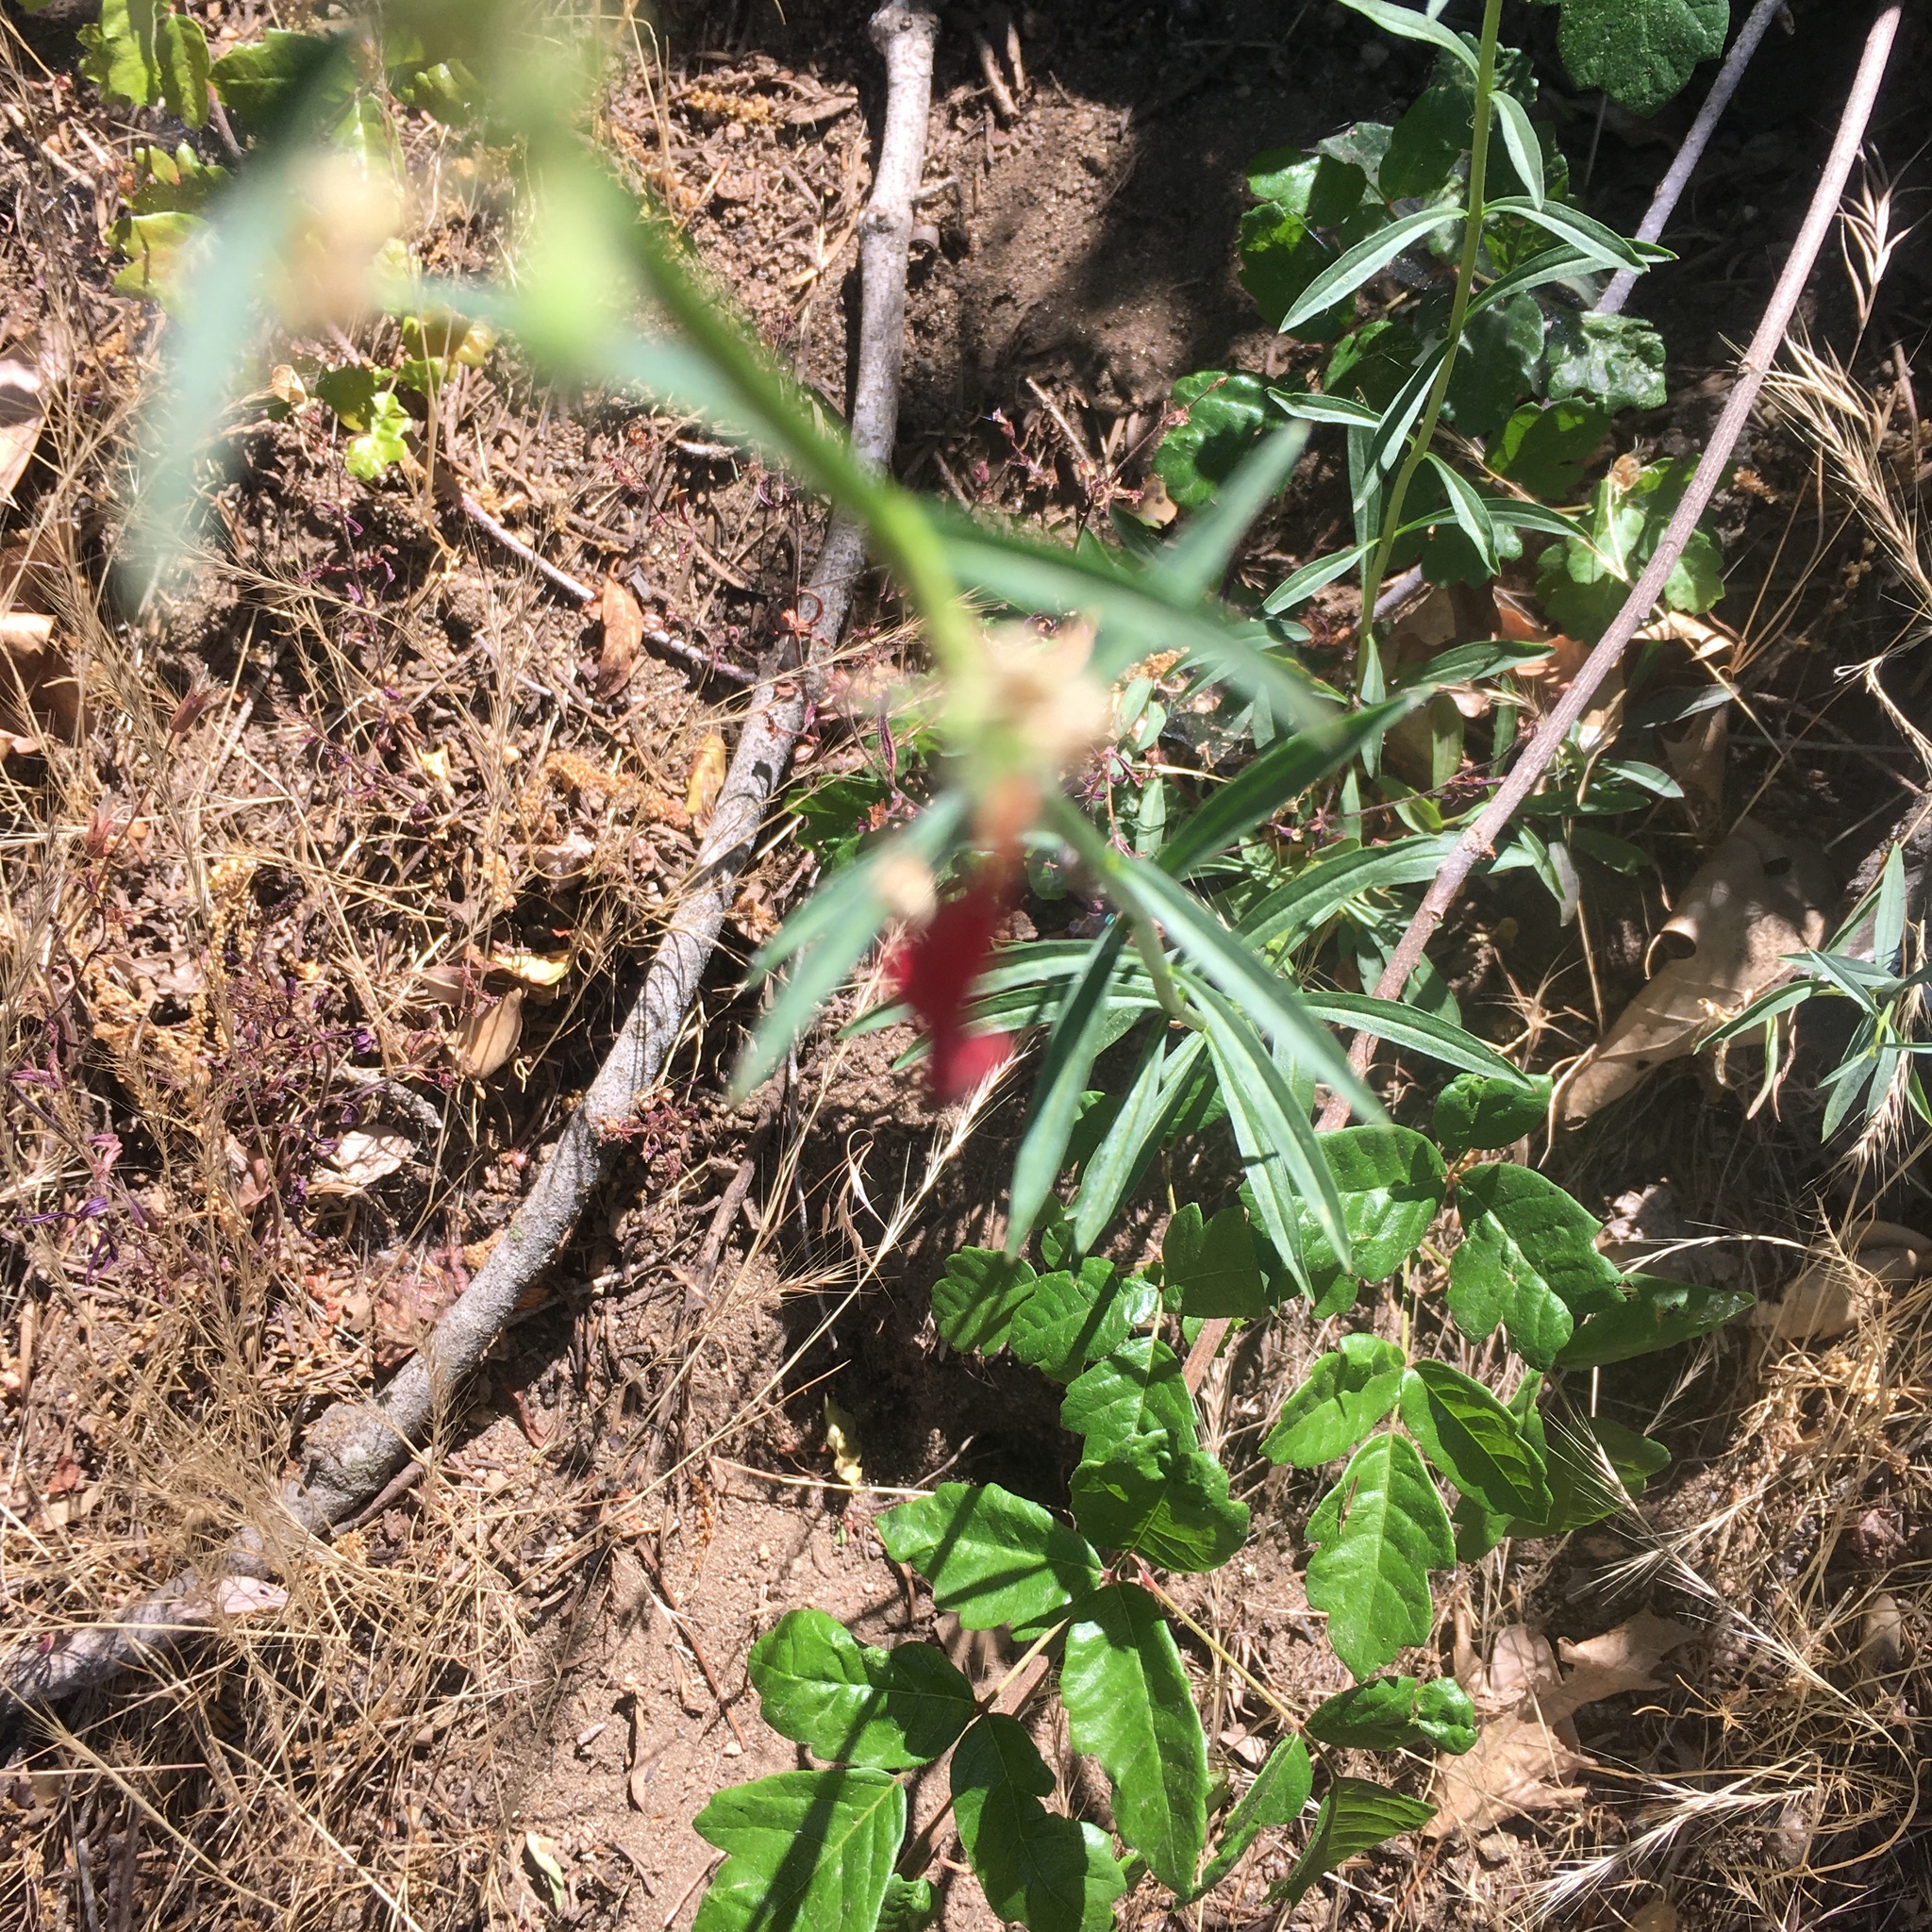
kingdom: Plantae
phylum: Tracheophyta
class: Magnoliopsida
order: Lamiales
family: Plantaginaceae
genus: Penstemon
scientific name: Penstemon rostriflorus
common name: Bridges's penstemon
